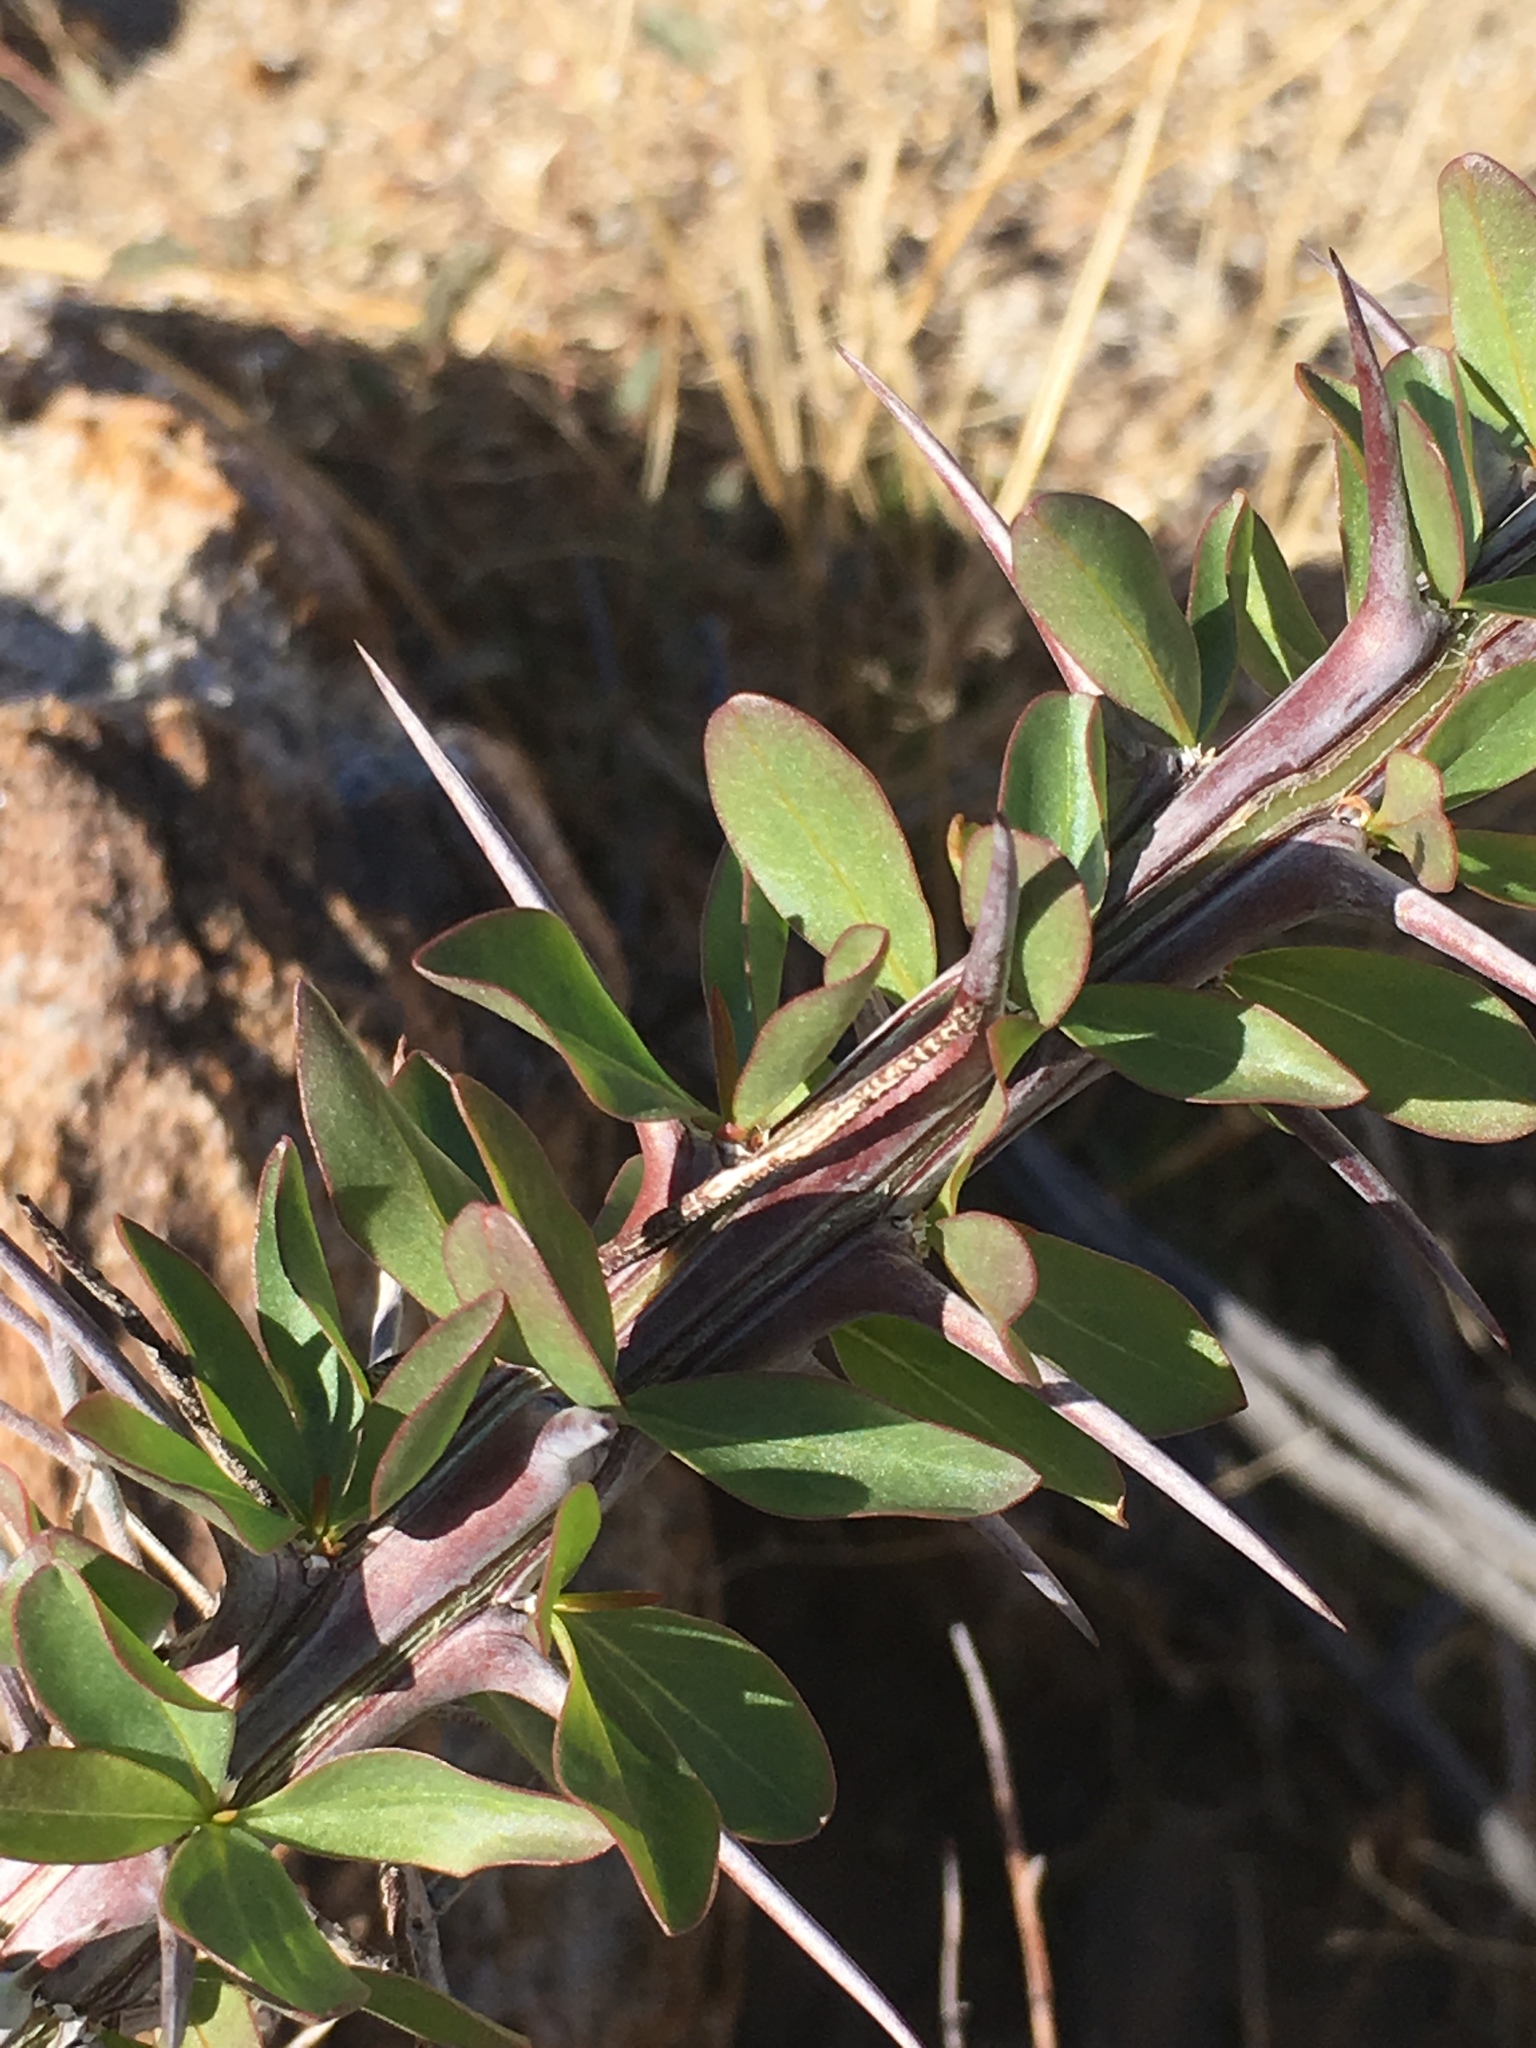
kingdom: Plantae
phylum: Tracheophyta
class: Magnoliopsida
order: Ericales
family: Fouquieriaceae
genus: Fouquieria
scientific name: Fouquieria splendens
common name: Vine-cactus
